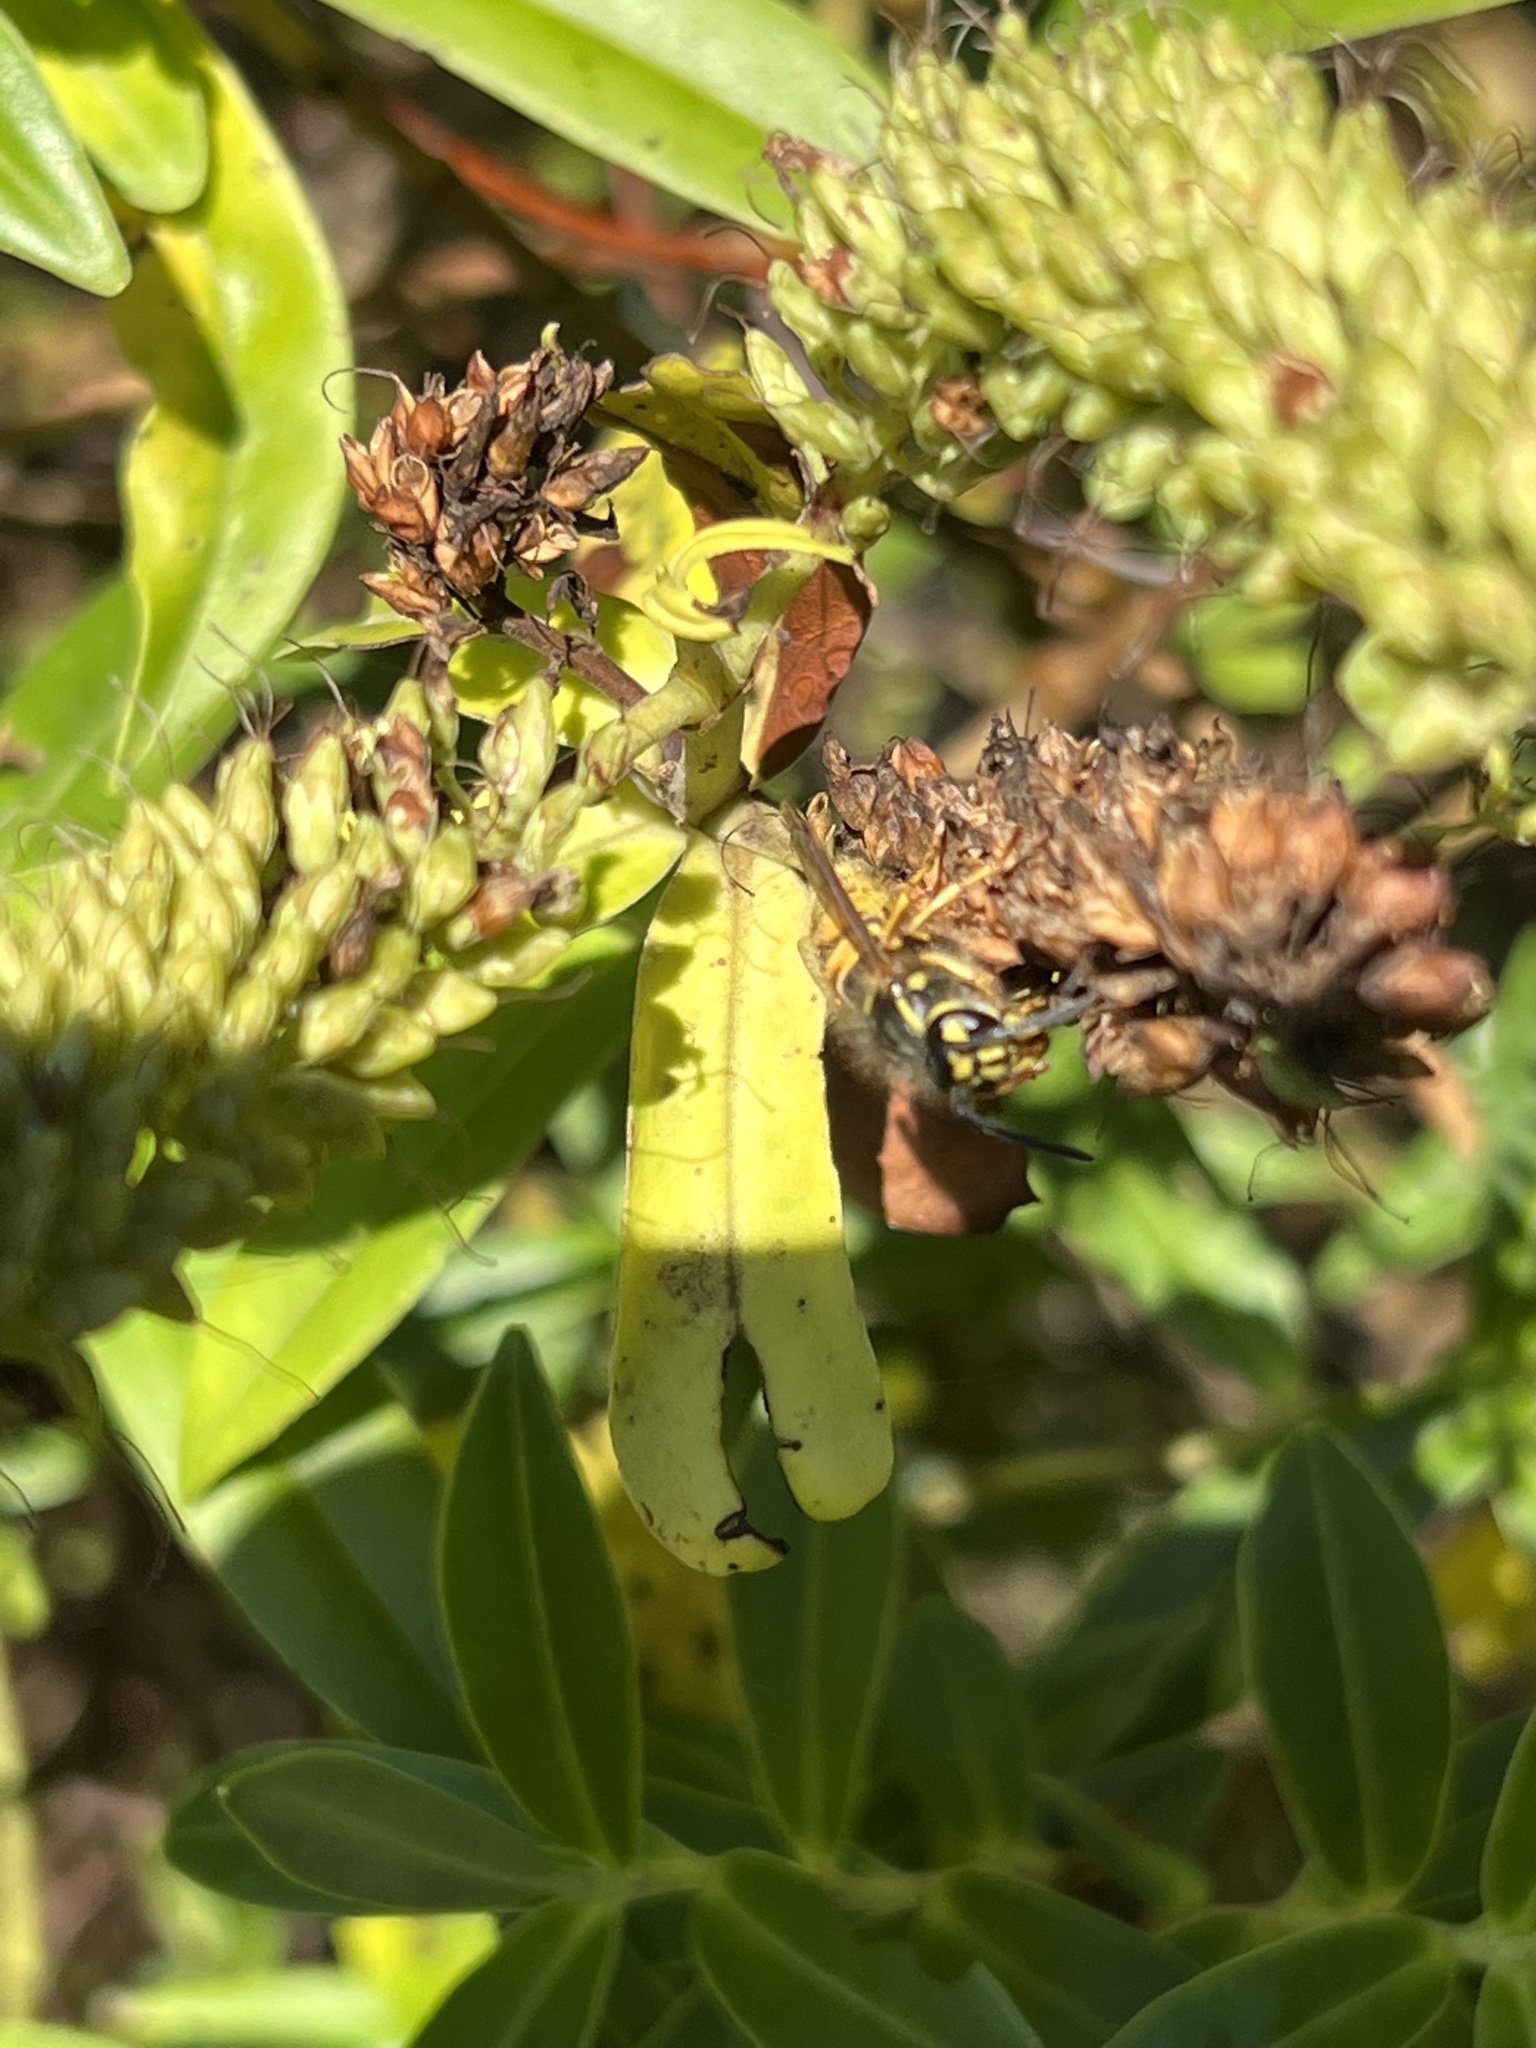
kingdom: Animalia
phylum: Arthropoda
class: Insecta
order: Hymenoptera
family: Vespidae
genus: Vespula
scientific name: Vespula vulgaris
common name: Common wasp
